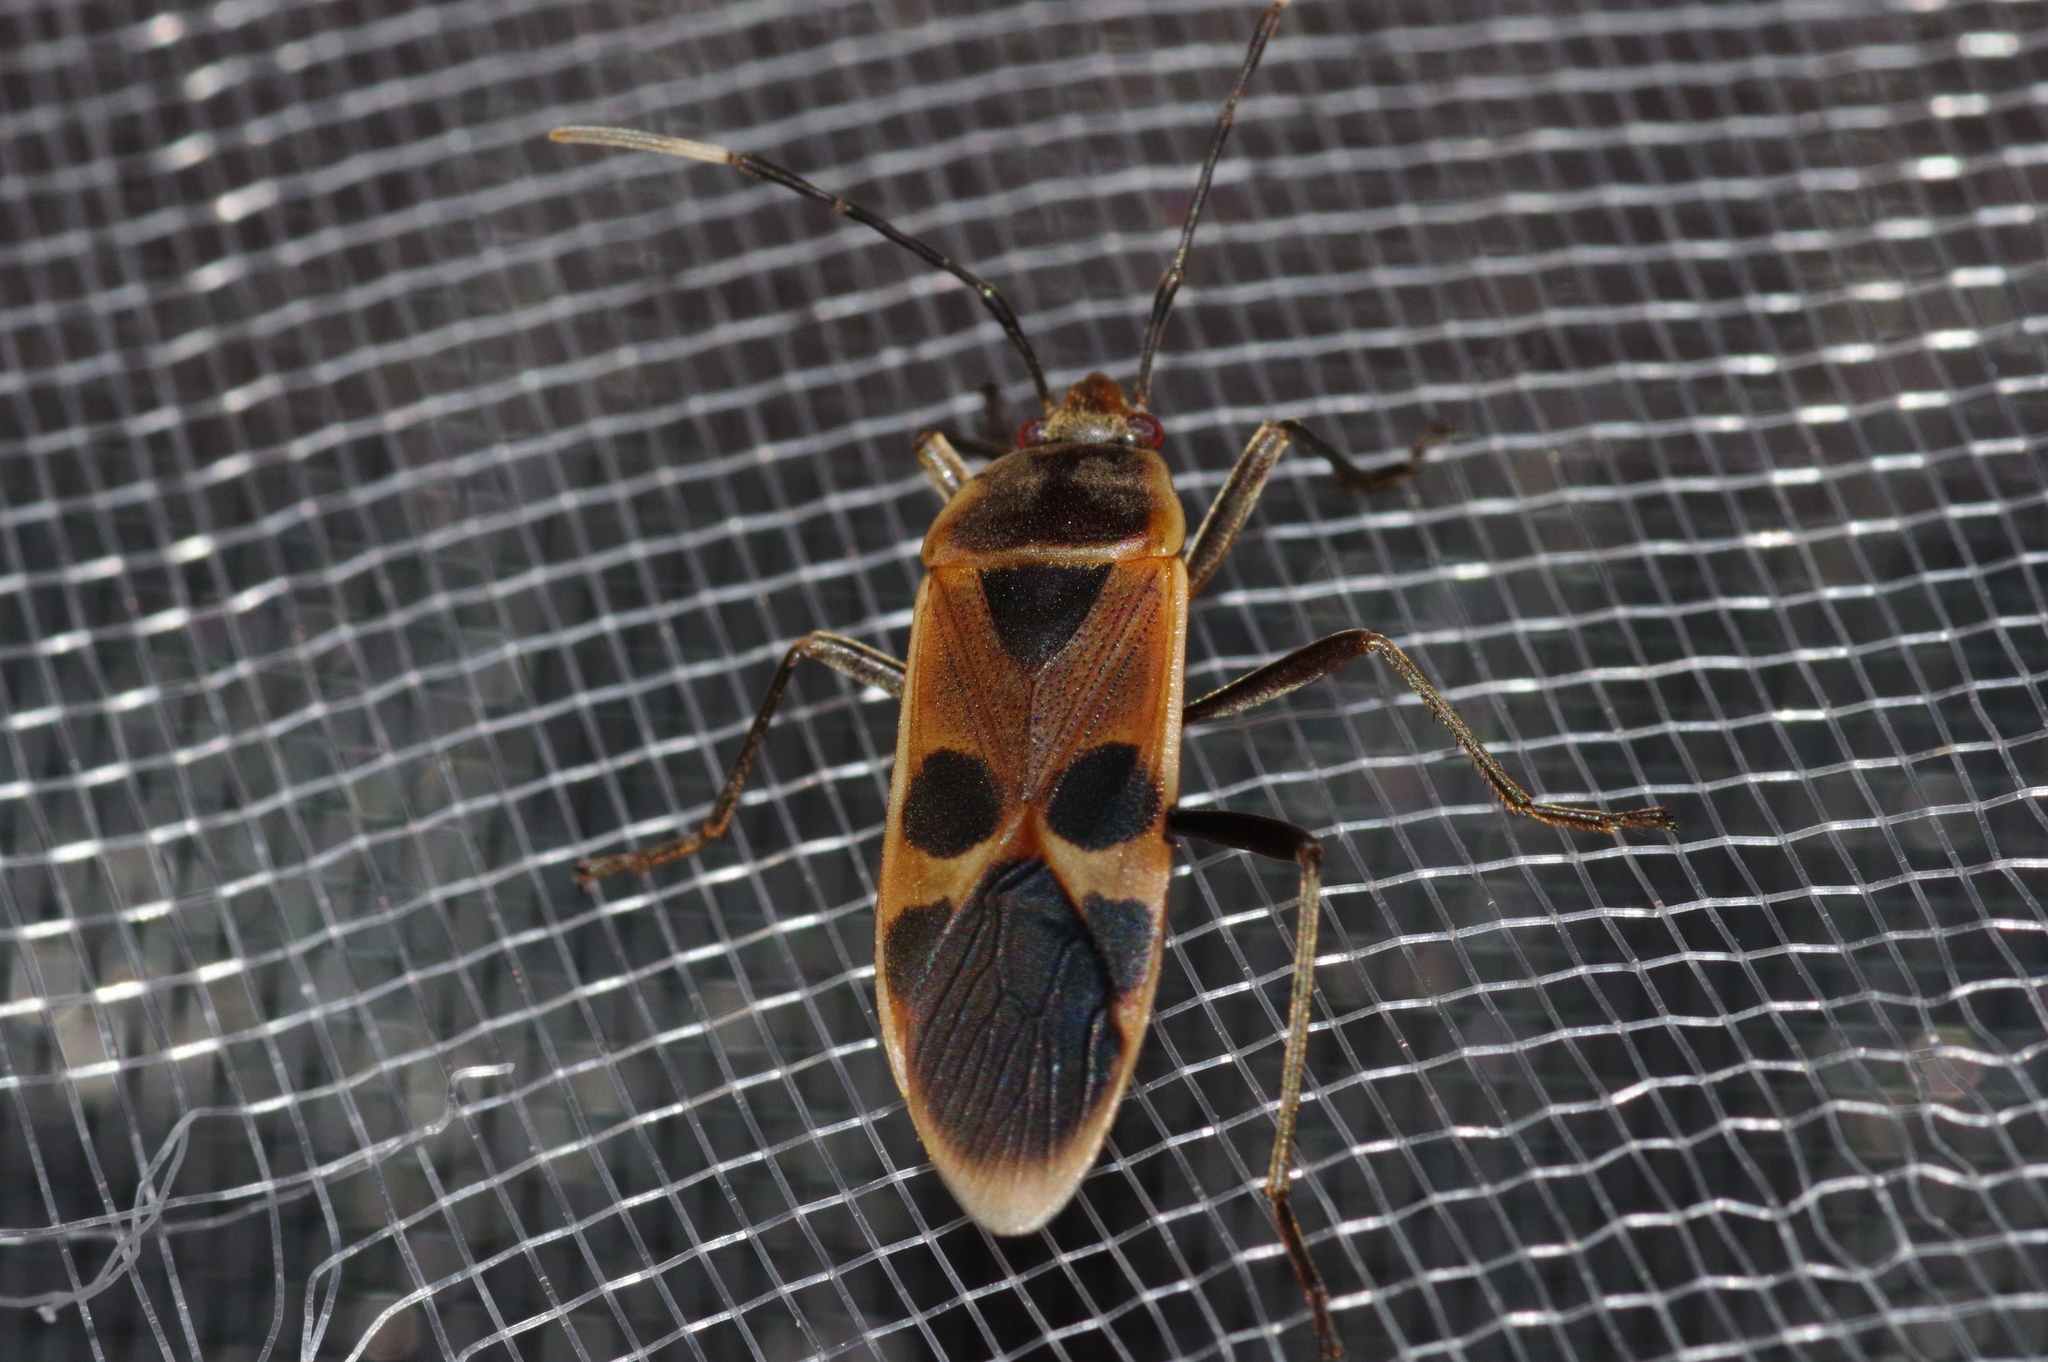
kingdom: Animalia
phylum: Arthropoda
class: Insecta
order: Hemiptera
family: Largidae
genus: Physopelta
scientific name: Physopelta gutta
